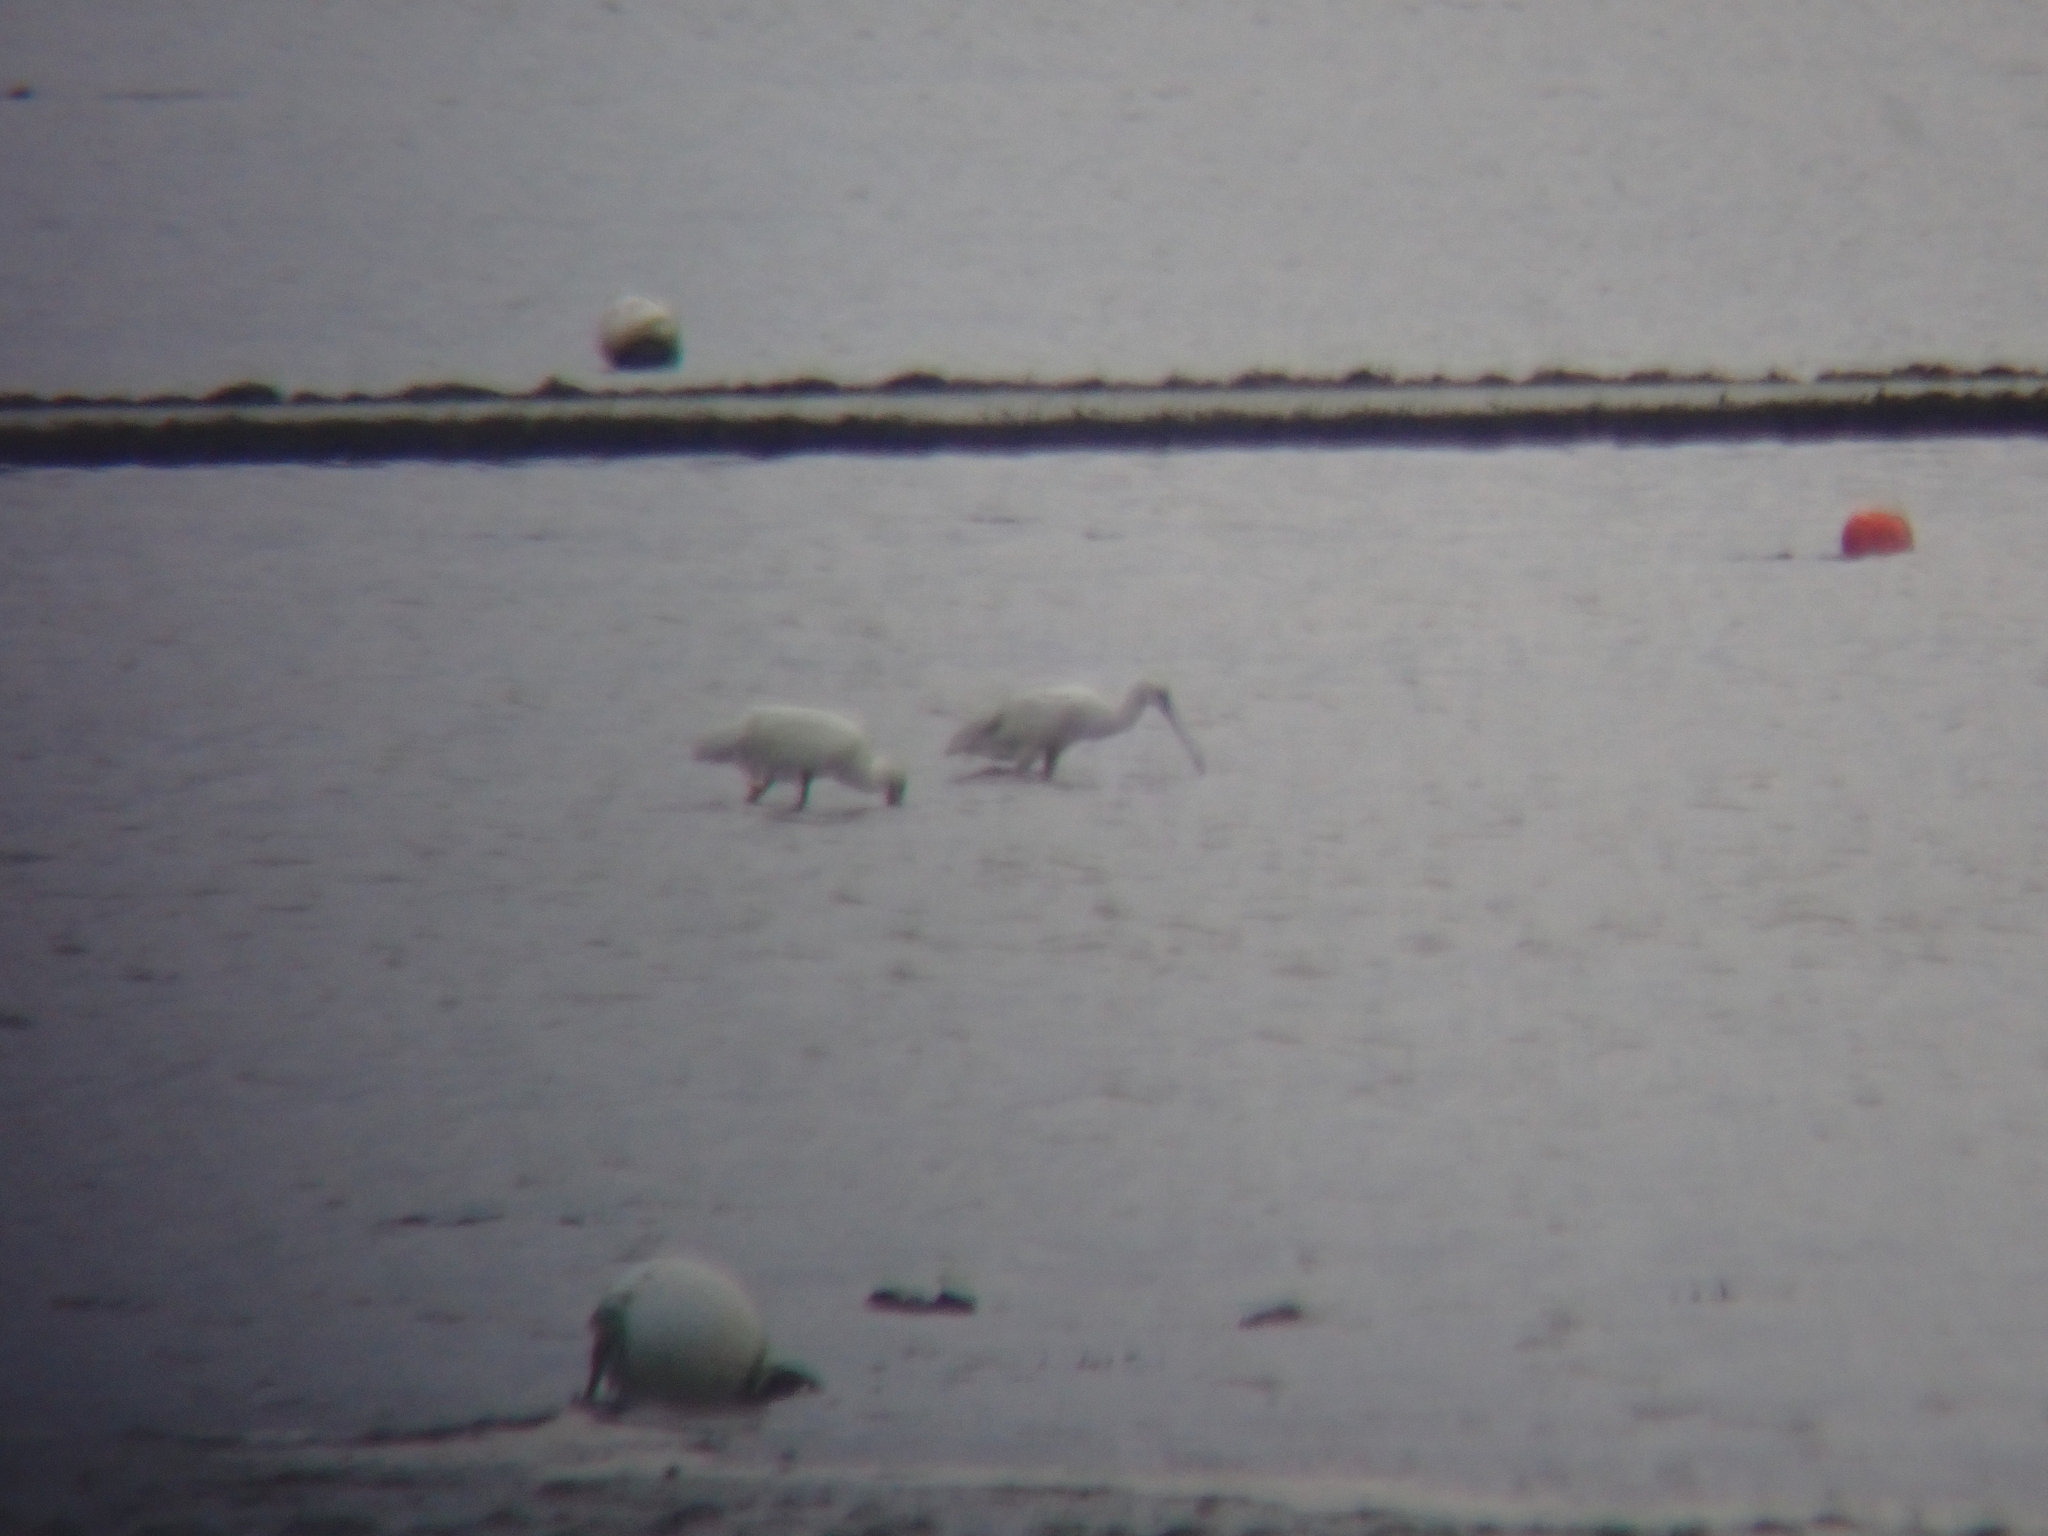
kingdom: Animalia
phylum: Chordata
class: Aves
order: Pelecaniformes
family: Threskiornithidae
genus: Platalea
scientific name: Platalea leucorodia
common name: Eurasian spoonbill
